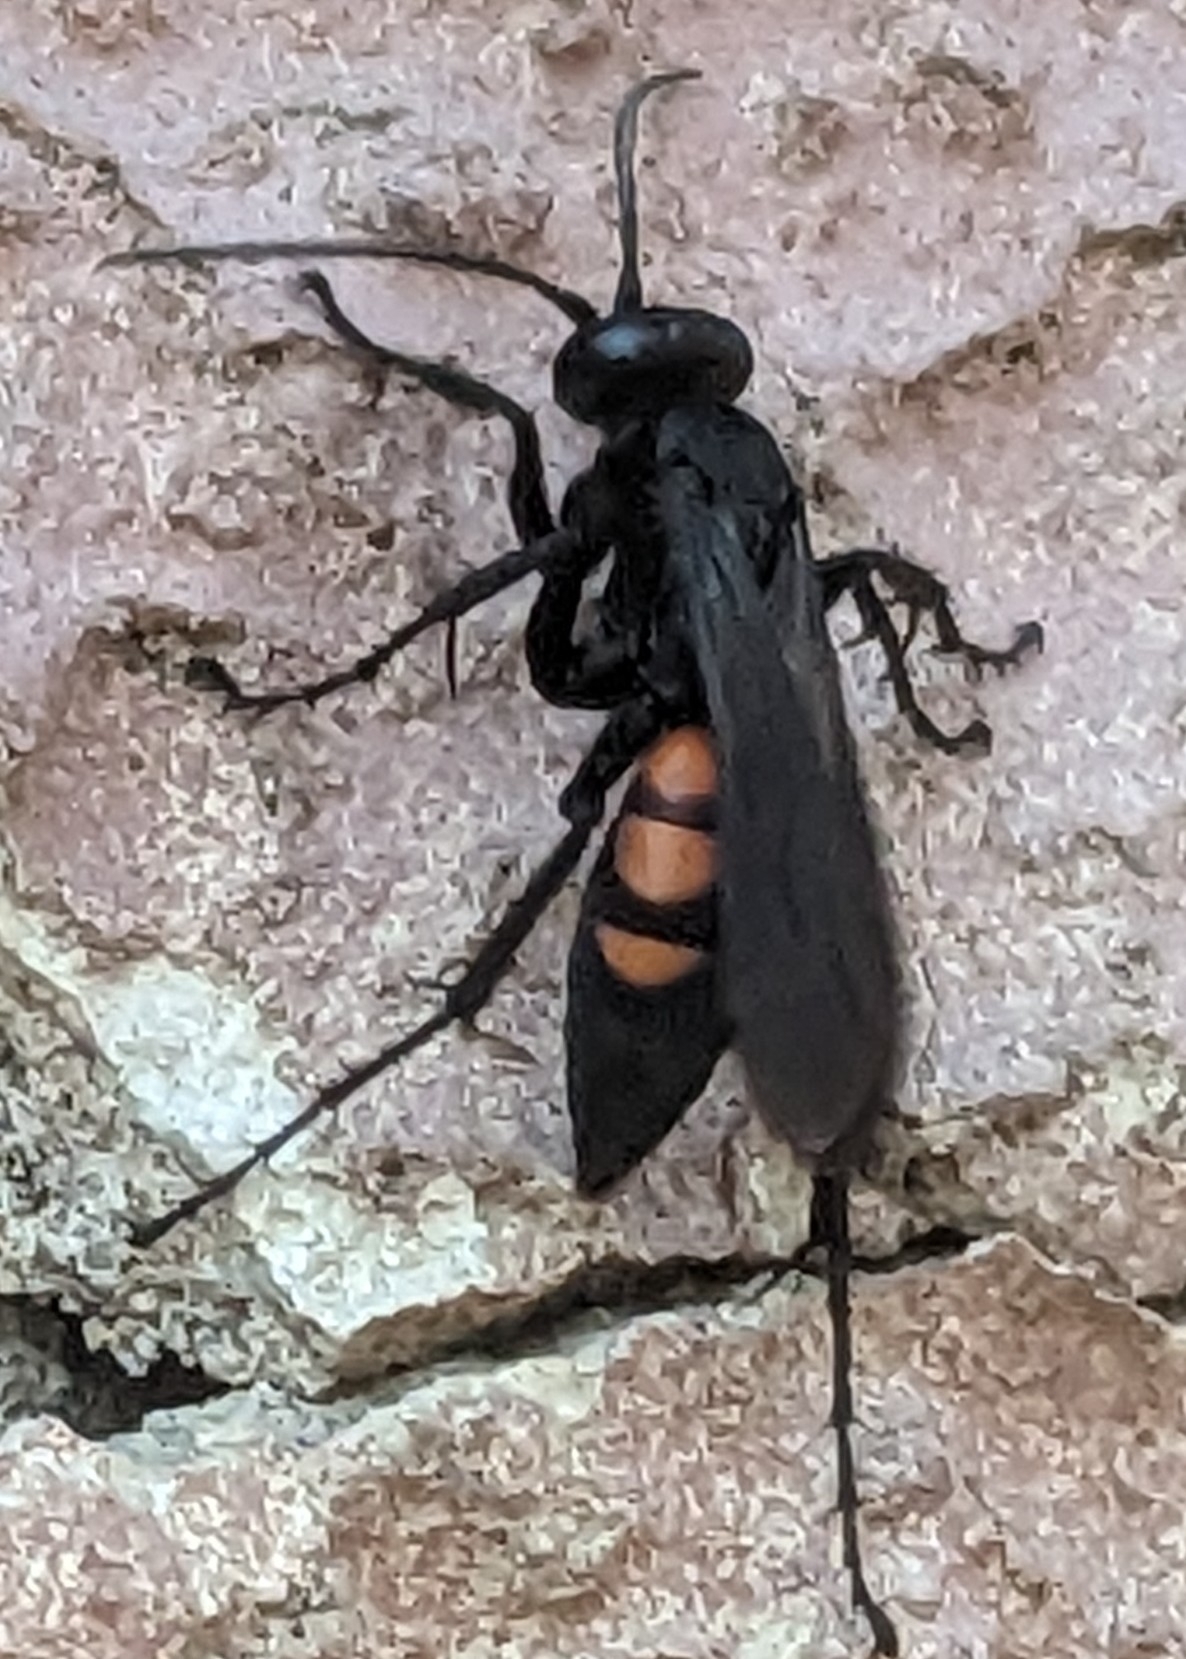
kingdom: Animalia
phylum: Arthropoda
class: Insecta
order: Hymenoptera
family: Pompilidae
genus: Anoplius
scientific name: Anoplius viaticus
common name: Black banded spider wasp
